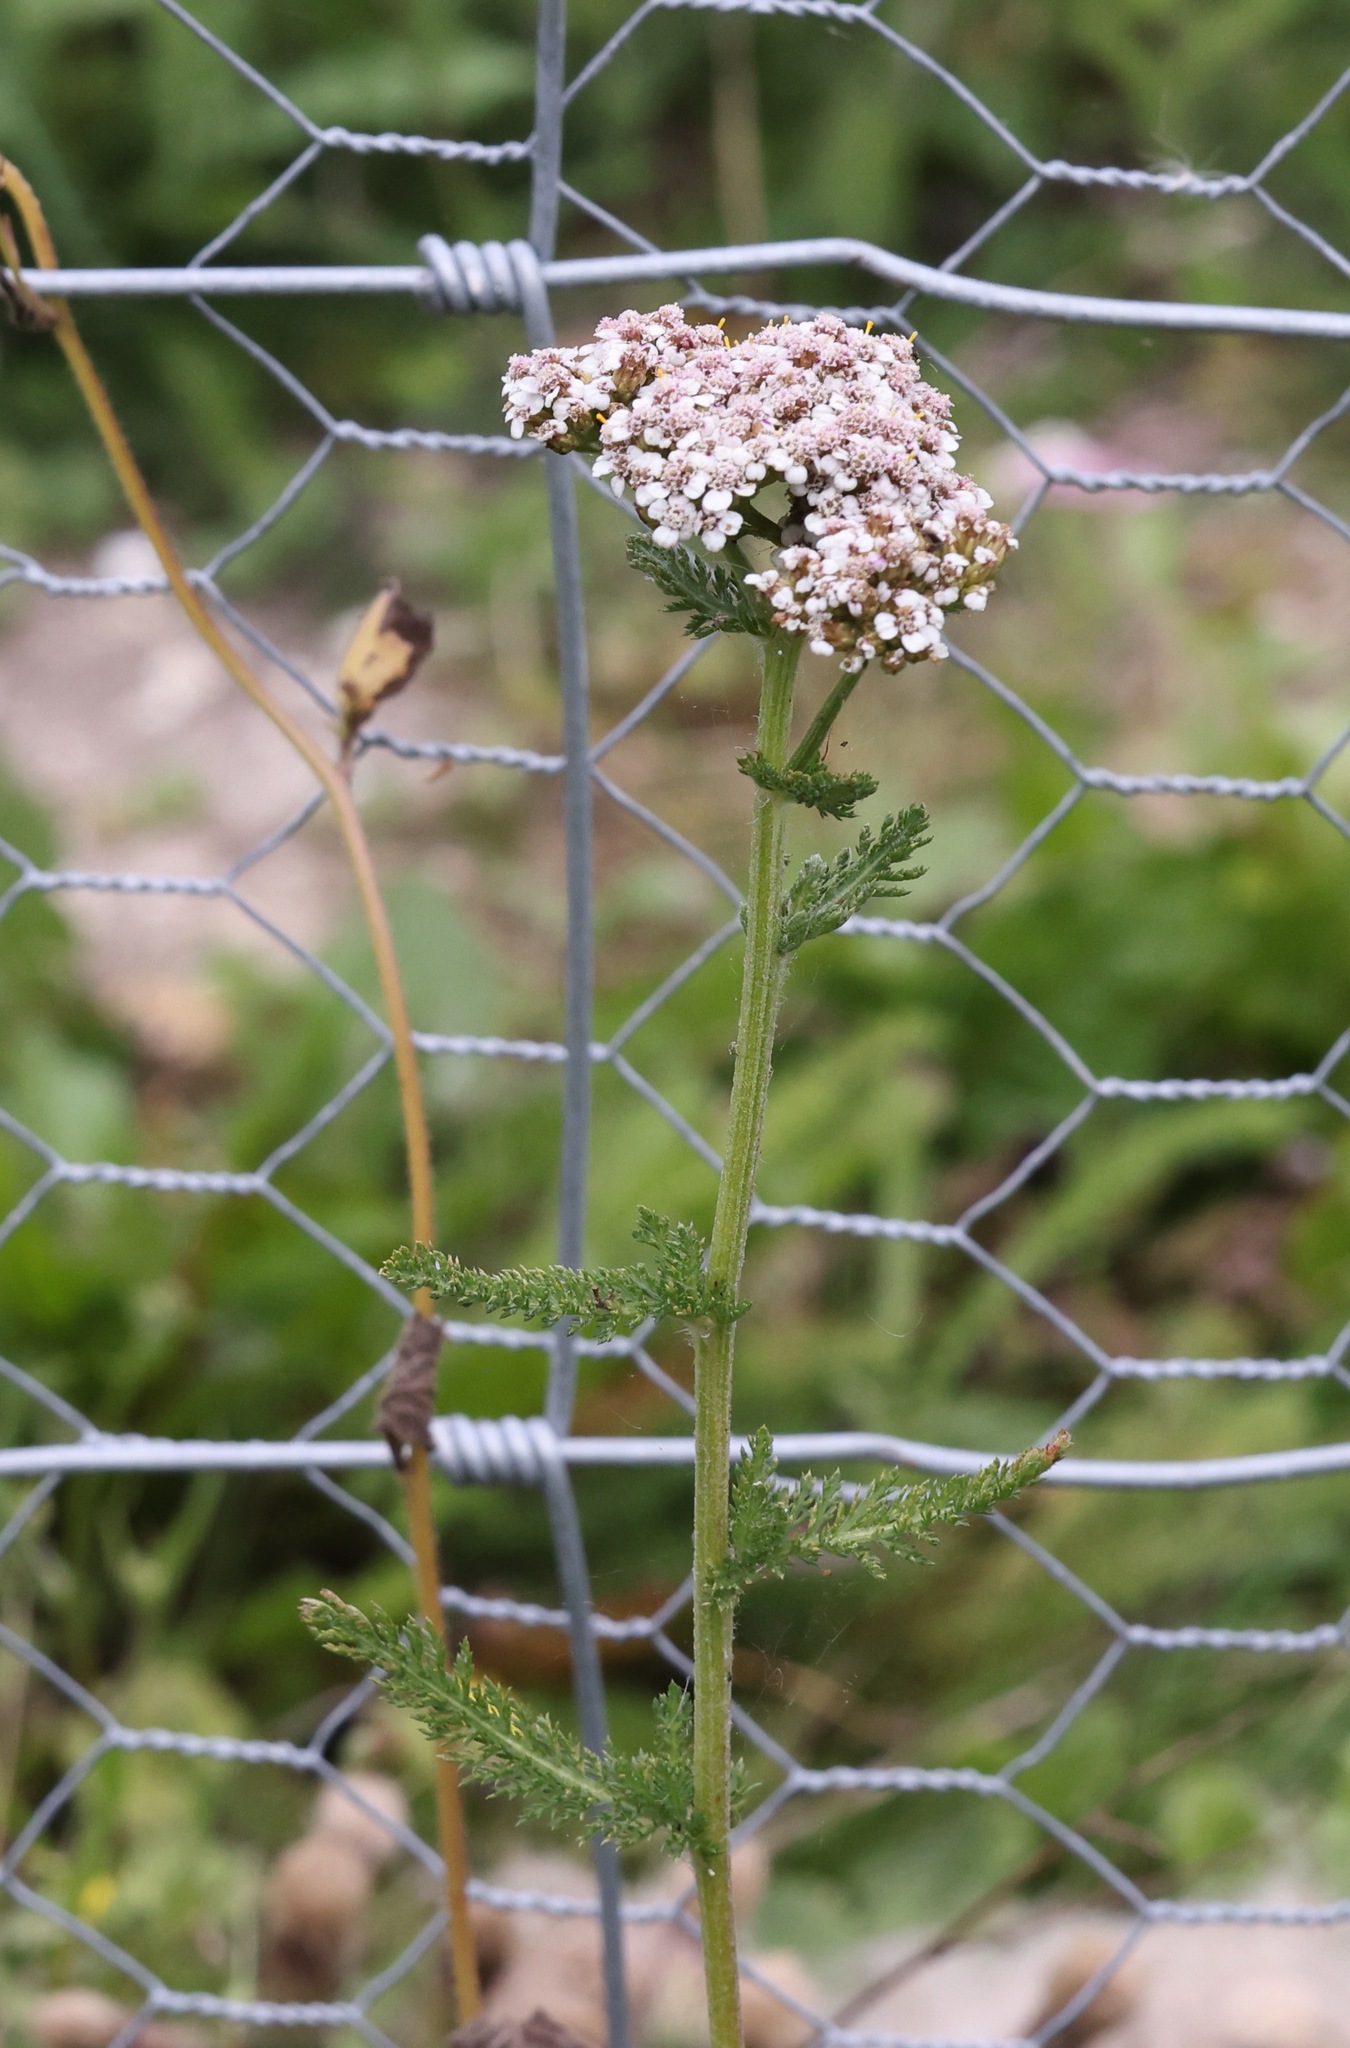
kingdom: Plantae
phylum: Tracheophyta
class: Magnoliopsida
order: Asterales
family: Asteraceae
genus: Achillea
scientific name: Achillea millefolium
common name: Yarrow
